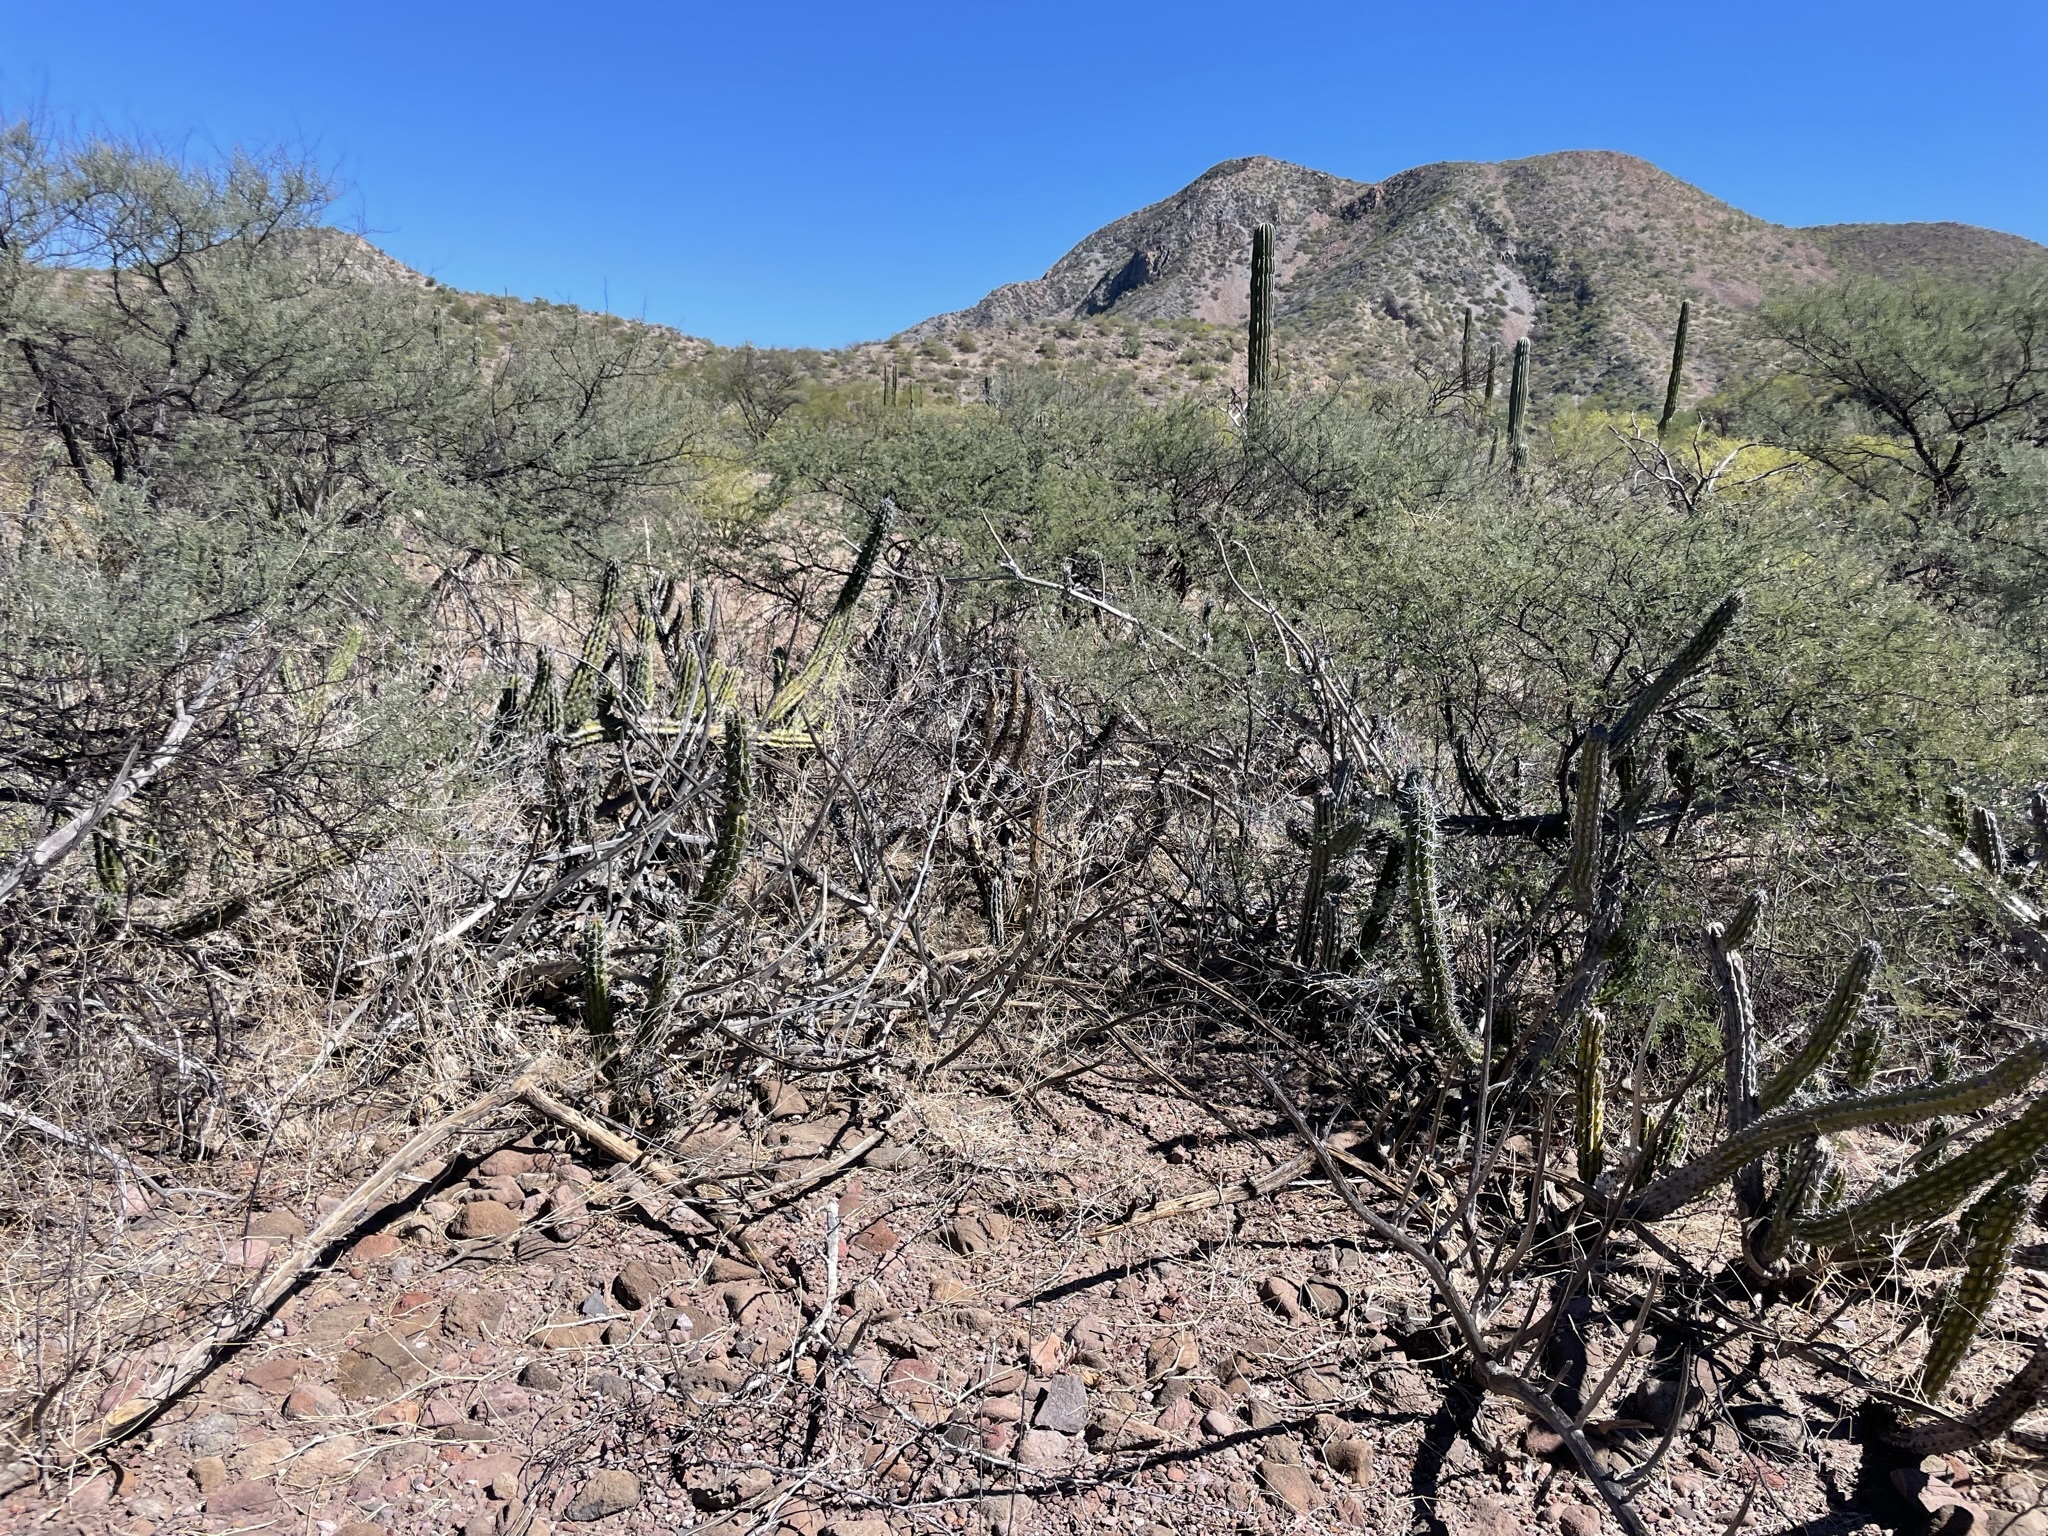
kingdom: Plantae
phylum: Tracheophyta
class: Magnoliopsida
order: Caryophyllales
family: Cactaceae
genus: Stenocereus
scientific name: Stenocereus gummosus
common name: Dagger cactus
